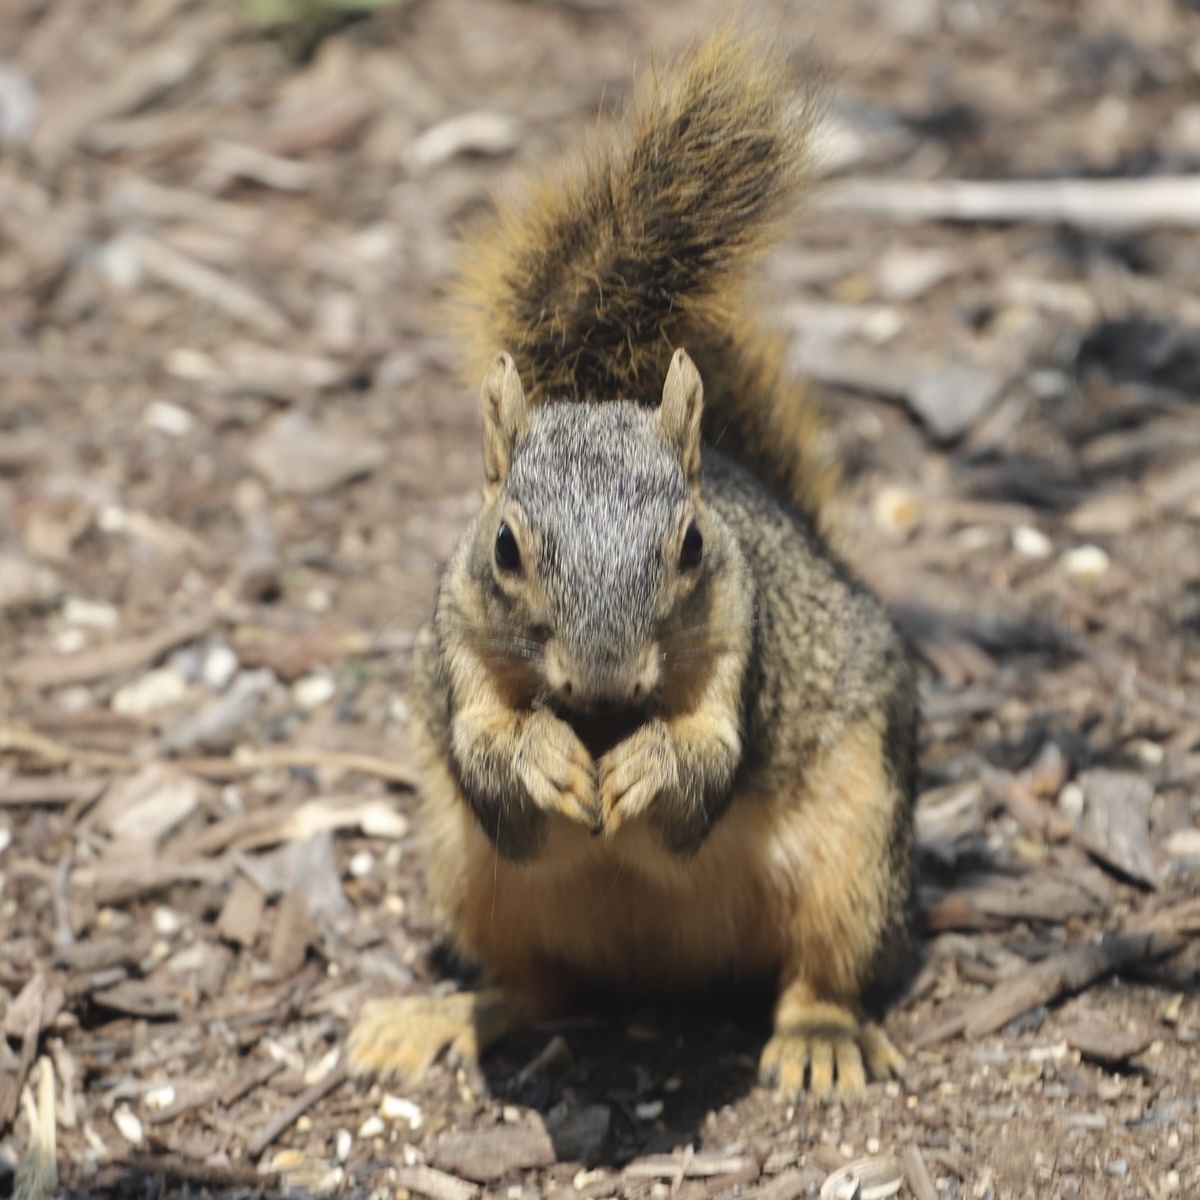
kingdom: Animalia
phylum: Chordata
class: Mammalia
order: Rodentia
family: Sciuridae
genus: Sciurus
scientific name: Sciurus niger
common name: Fox squirrel
